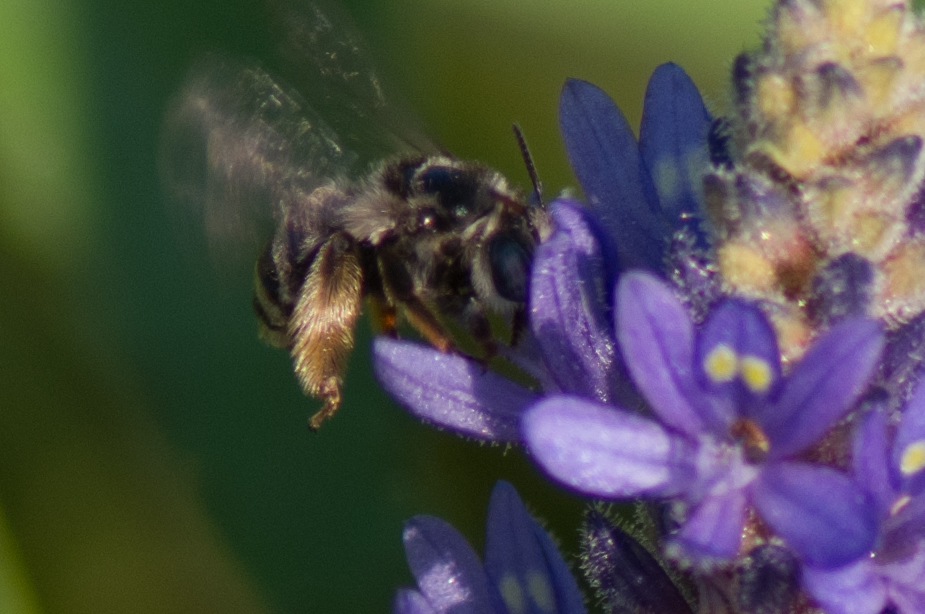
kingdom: Animalia
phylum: Arthropoda
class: Insecta
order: Hymenoptera
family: Apidae
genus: Florilegus
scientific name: Florilegus condignus
